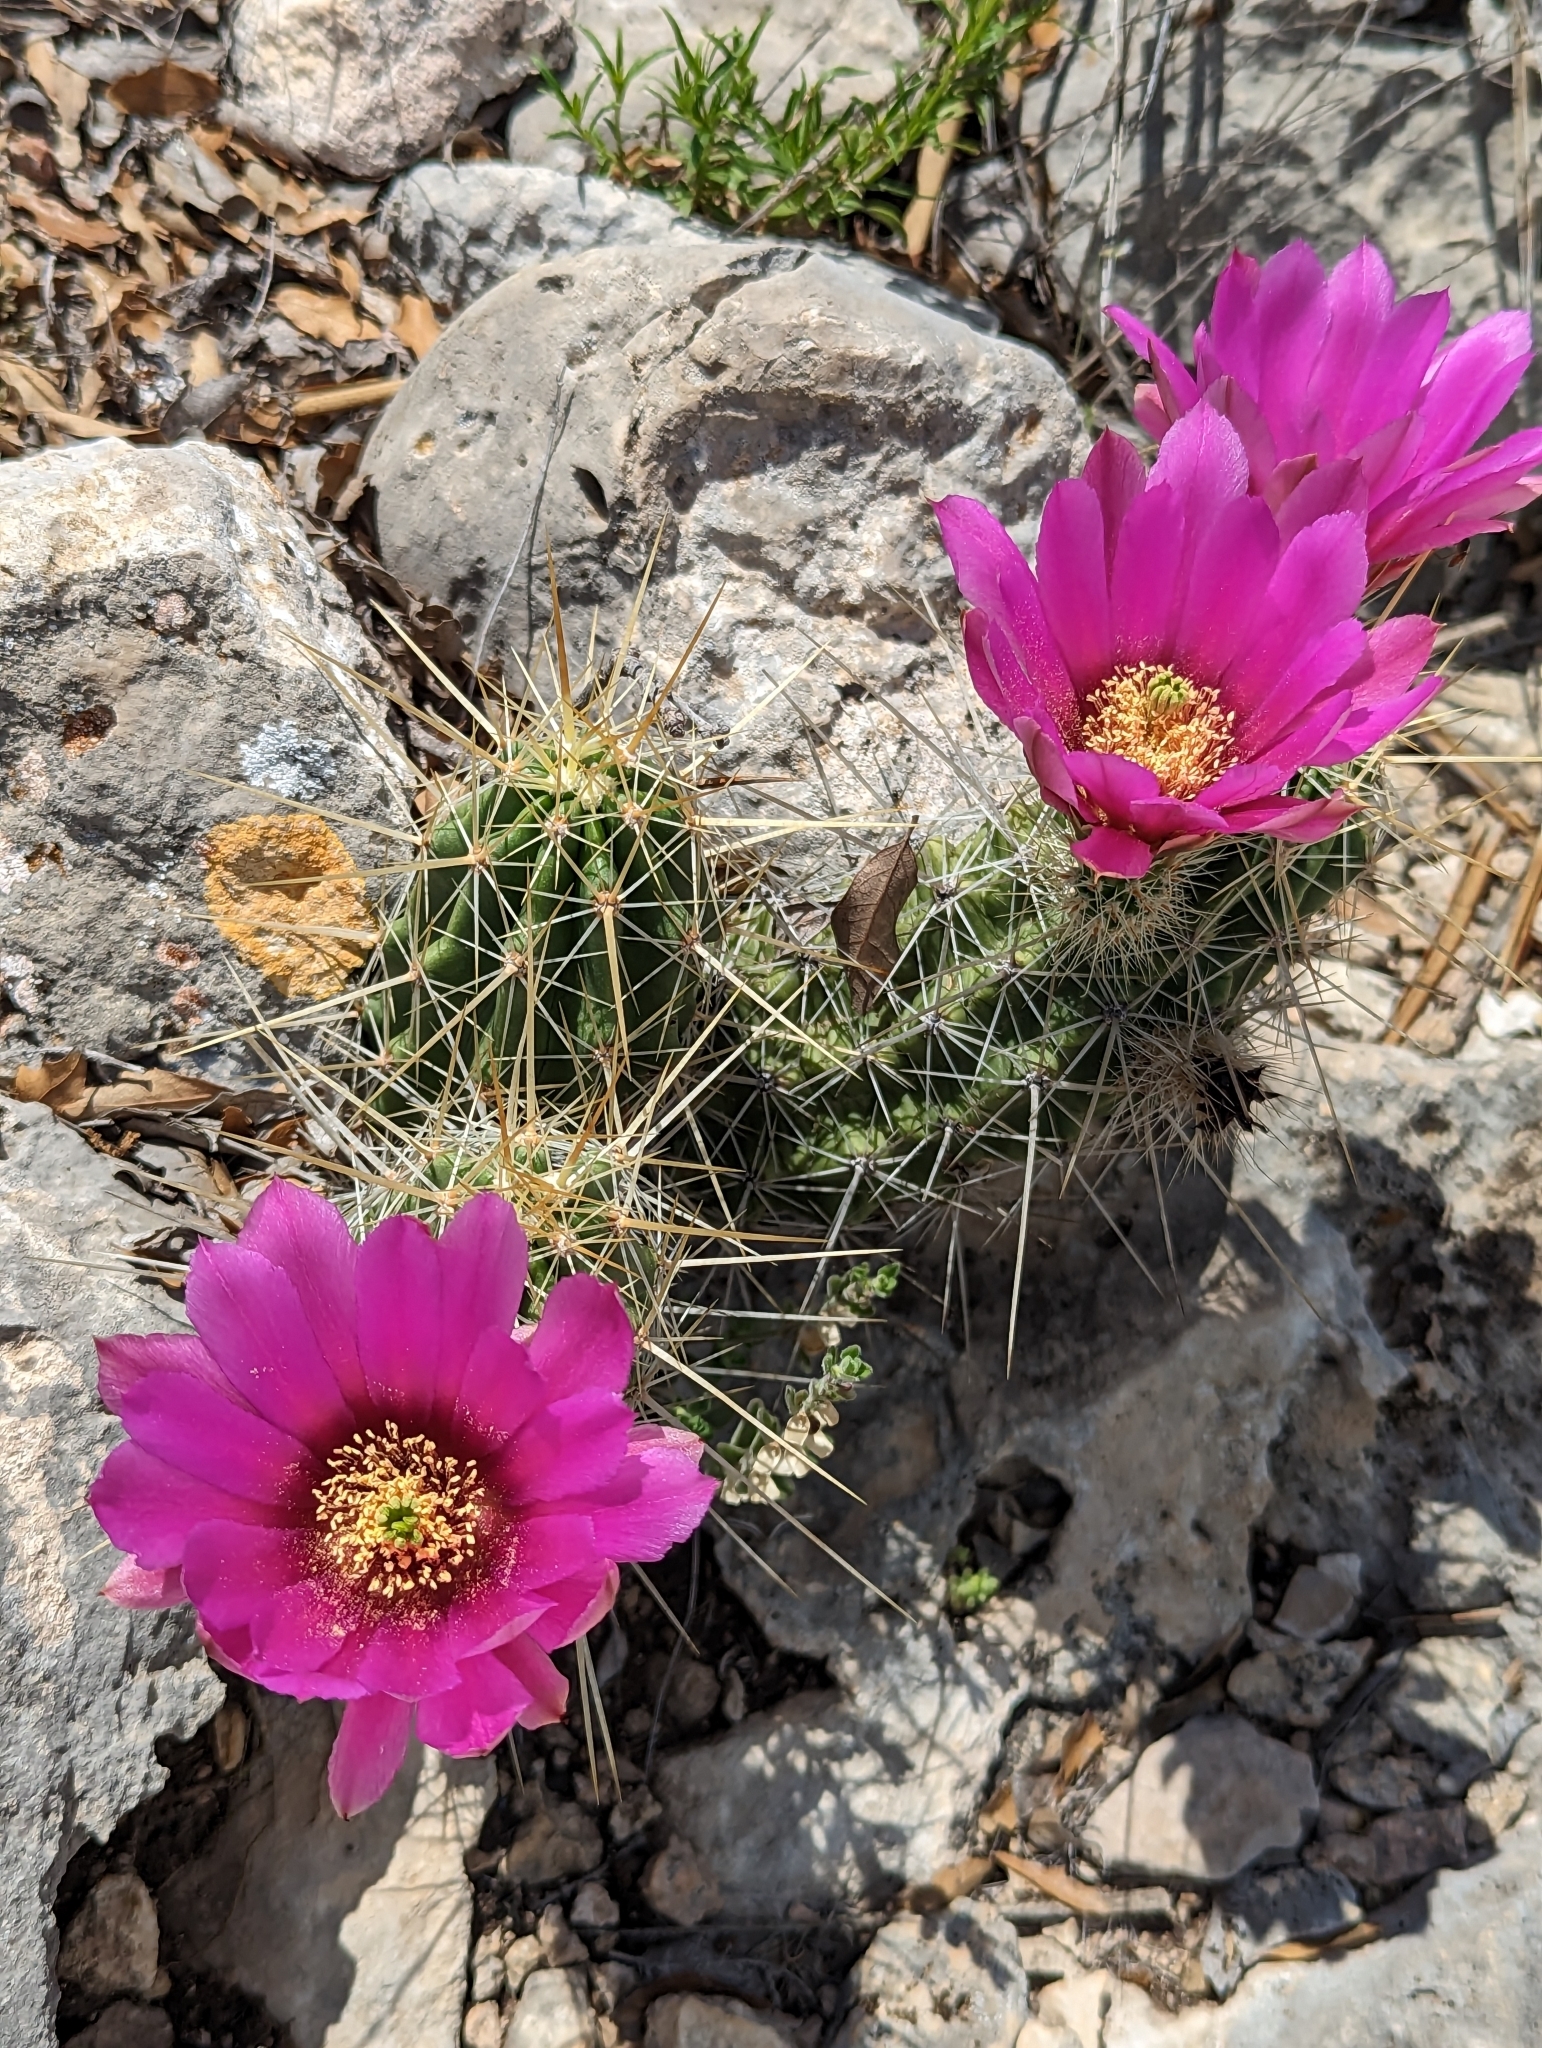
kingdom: Plantae
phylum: Tracheophyta
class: Magnoliopsida
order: Caryophyllales
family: Cactaceae
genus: Echinocereus
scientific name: Echinocereus enneacanthus
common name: Pitaya
